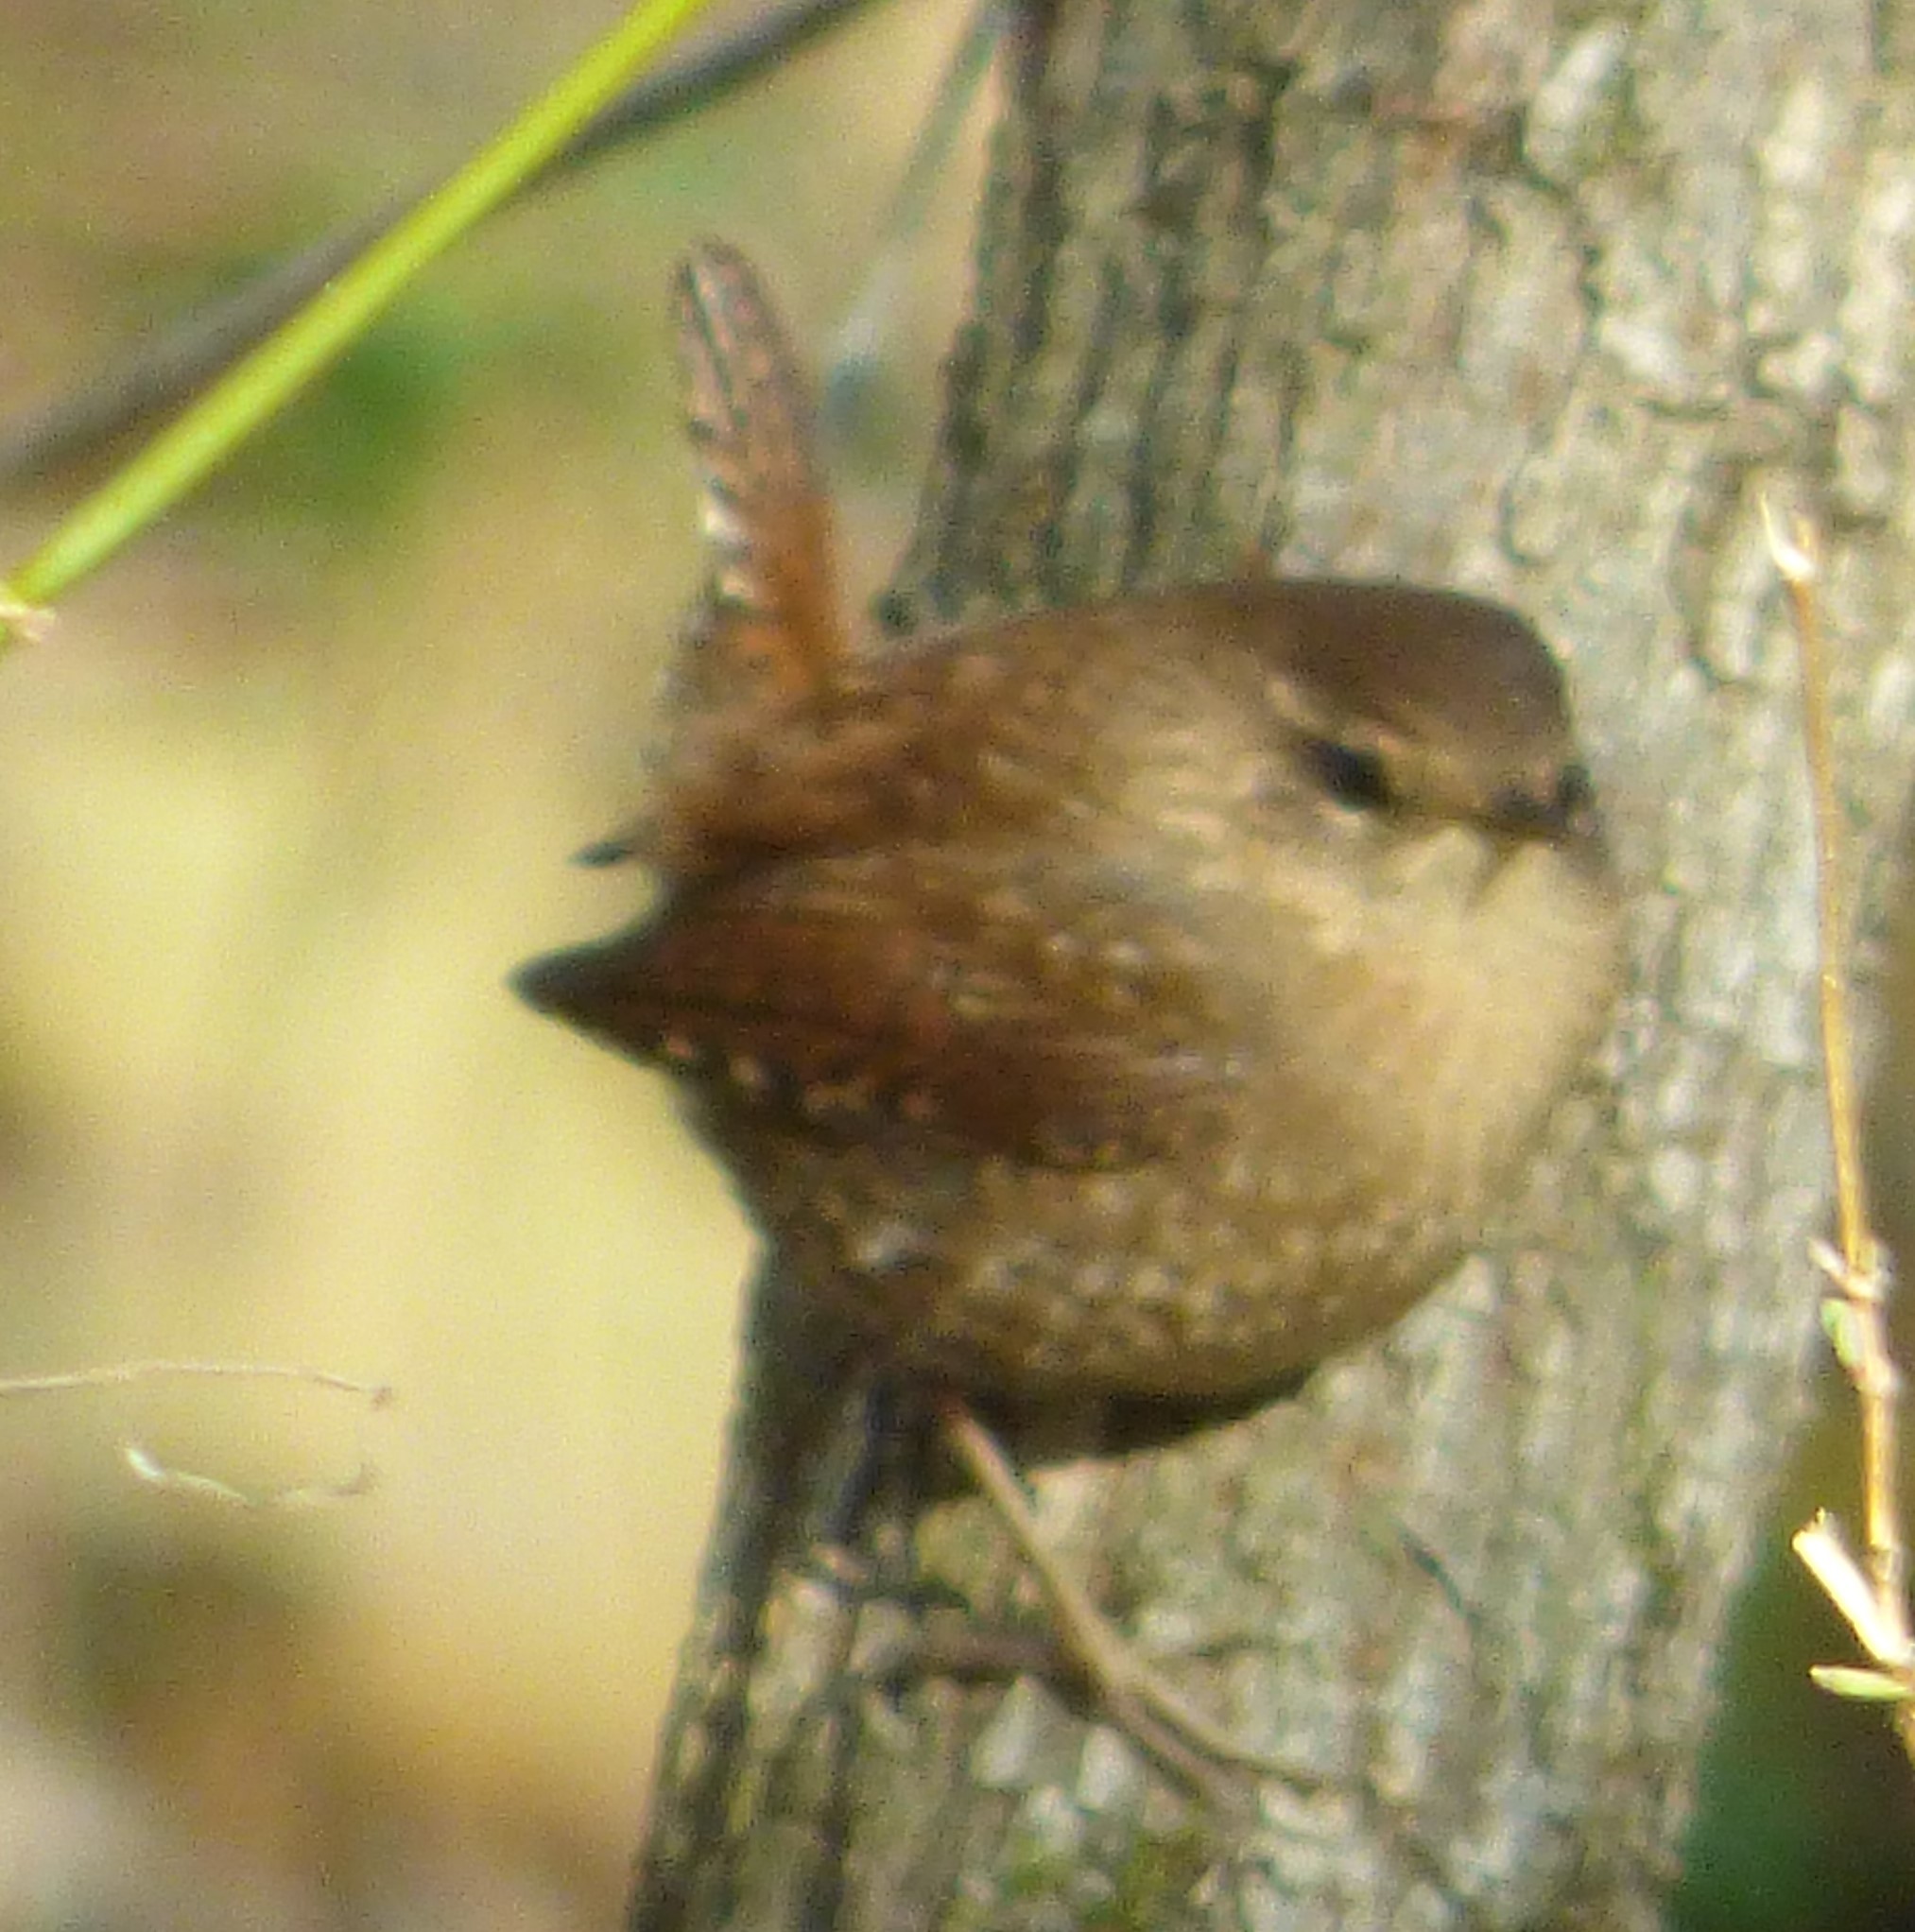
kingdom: Animalia
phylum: Chordata
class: Aves
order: Passeriformes
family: Troglodytidae
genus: Troglodytes
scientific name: Troglodytes hiemalis
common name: Winter wren
